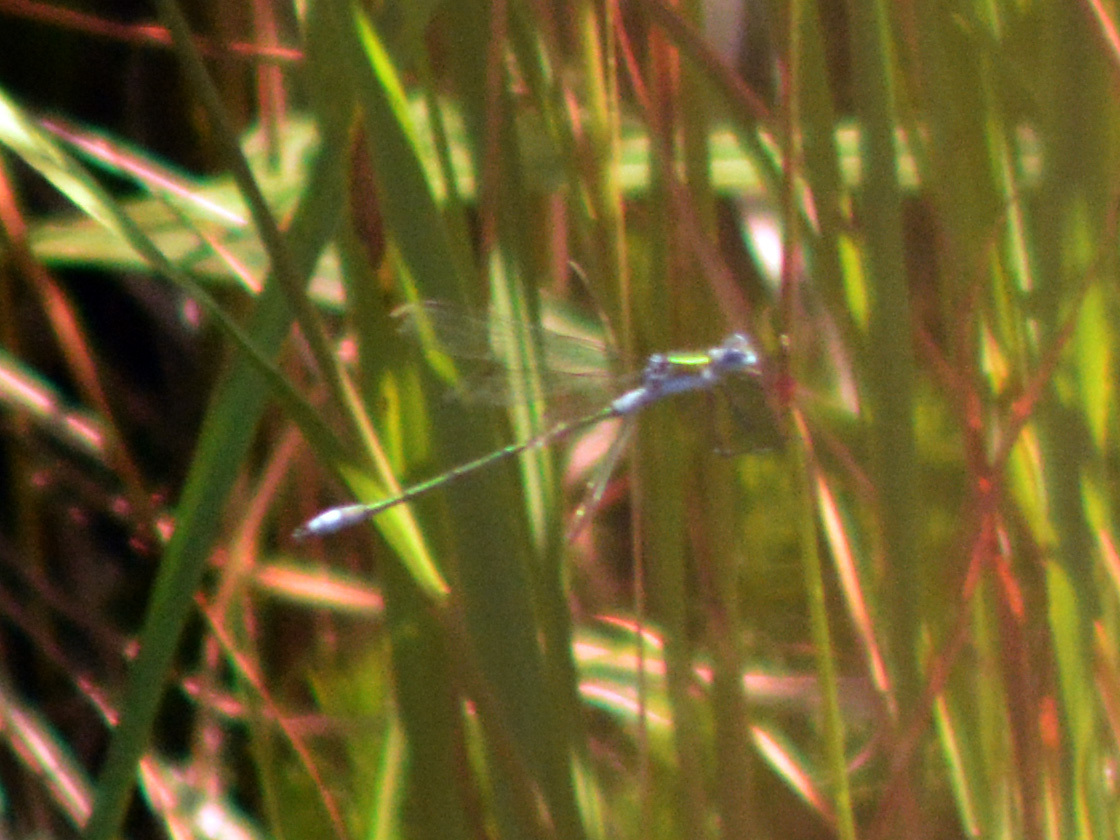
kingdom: Animalia
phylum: Arthropoda
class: Insecta
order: Odonata
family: Lestidae
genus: Lestes
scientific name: Lestes sponsa
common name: Common spreadwing
